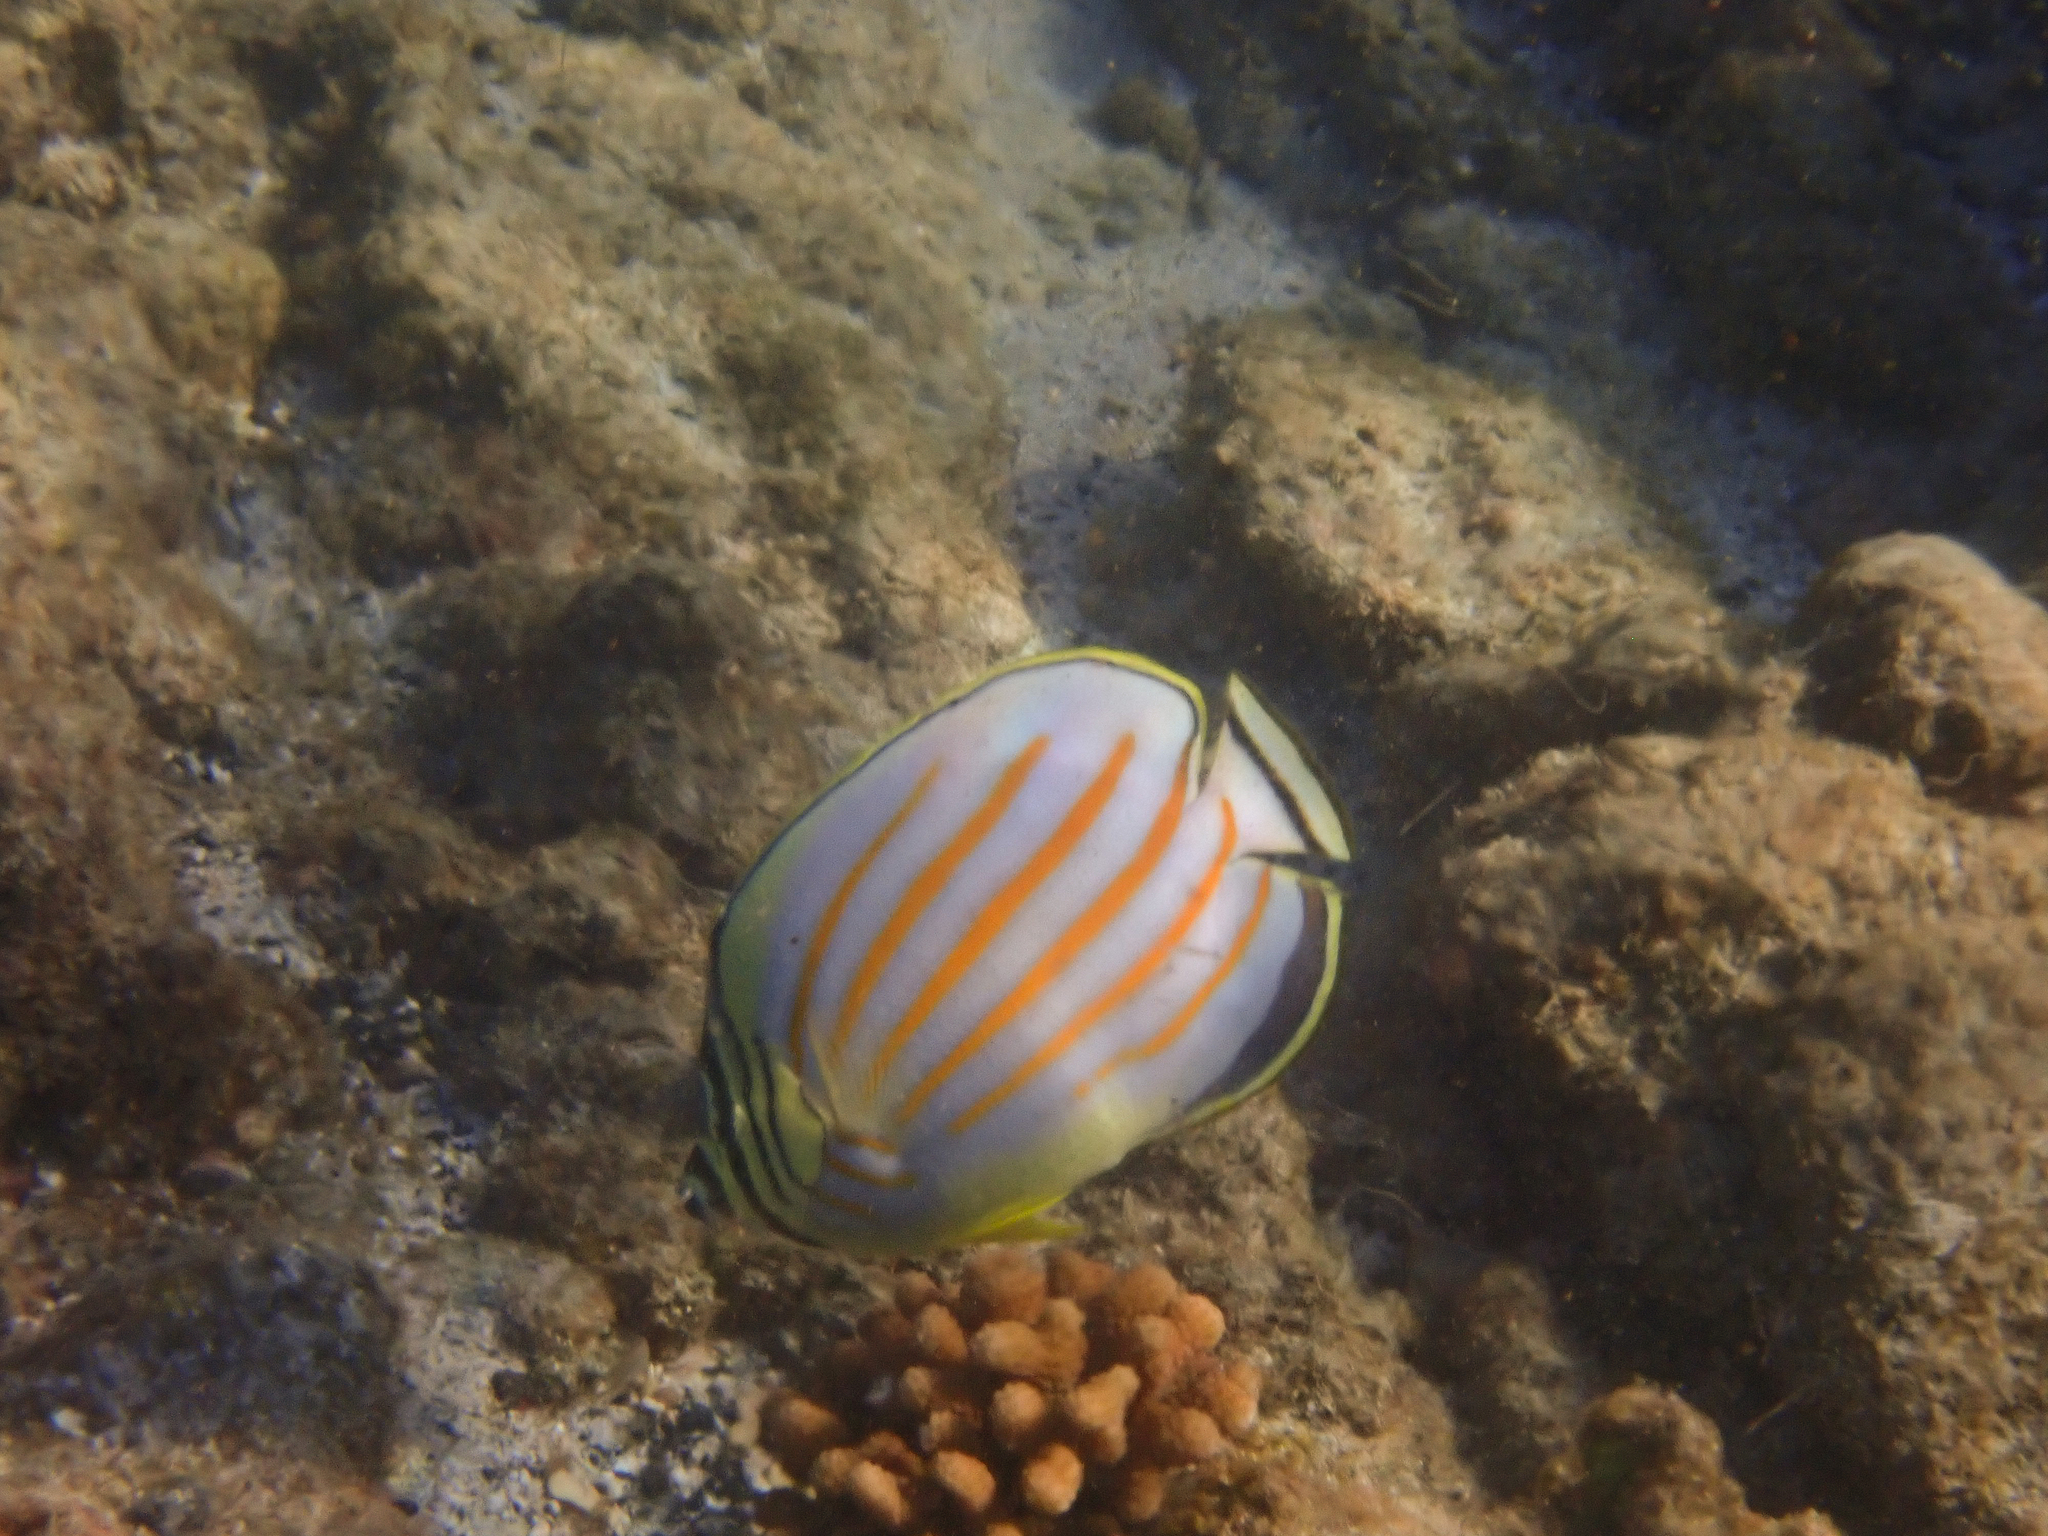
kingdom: Animalia
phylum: Chordata
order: Perciformes
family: Chaetodontidae
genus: Chaetodon
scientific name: Chaetodon ornatissimus
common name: Ornate butterflyfish
